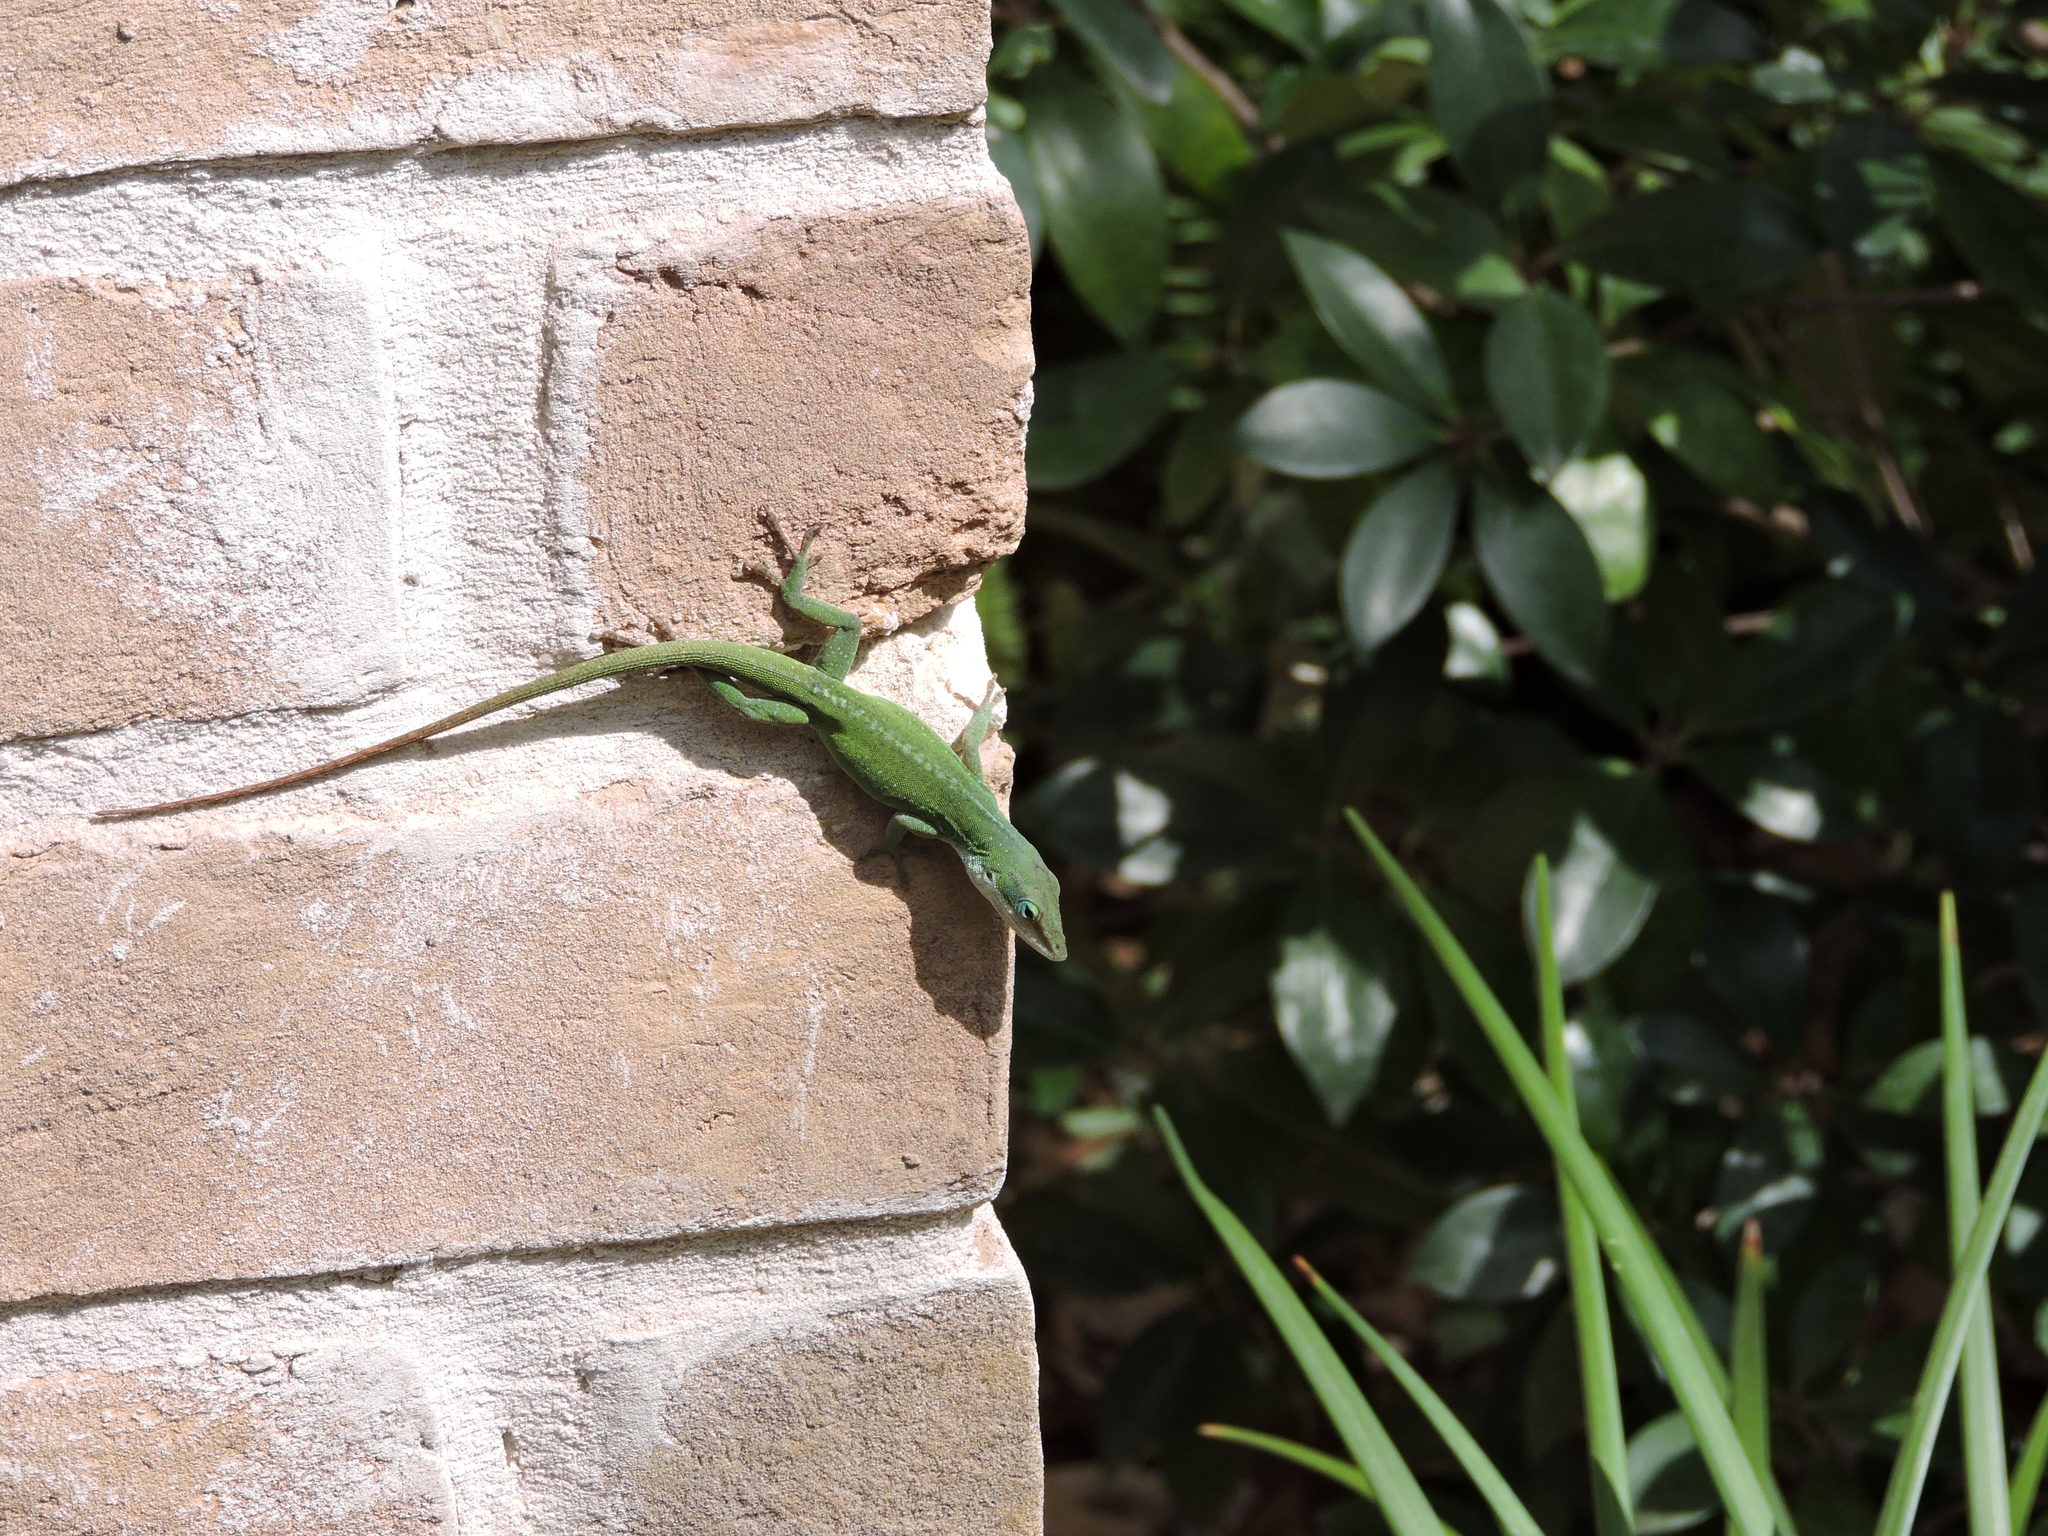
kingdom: Animalia
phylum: Chordata
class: Squamata
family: Dactyloidae
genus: Anolis
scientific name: Anolis carolinensis
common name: Green anole
